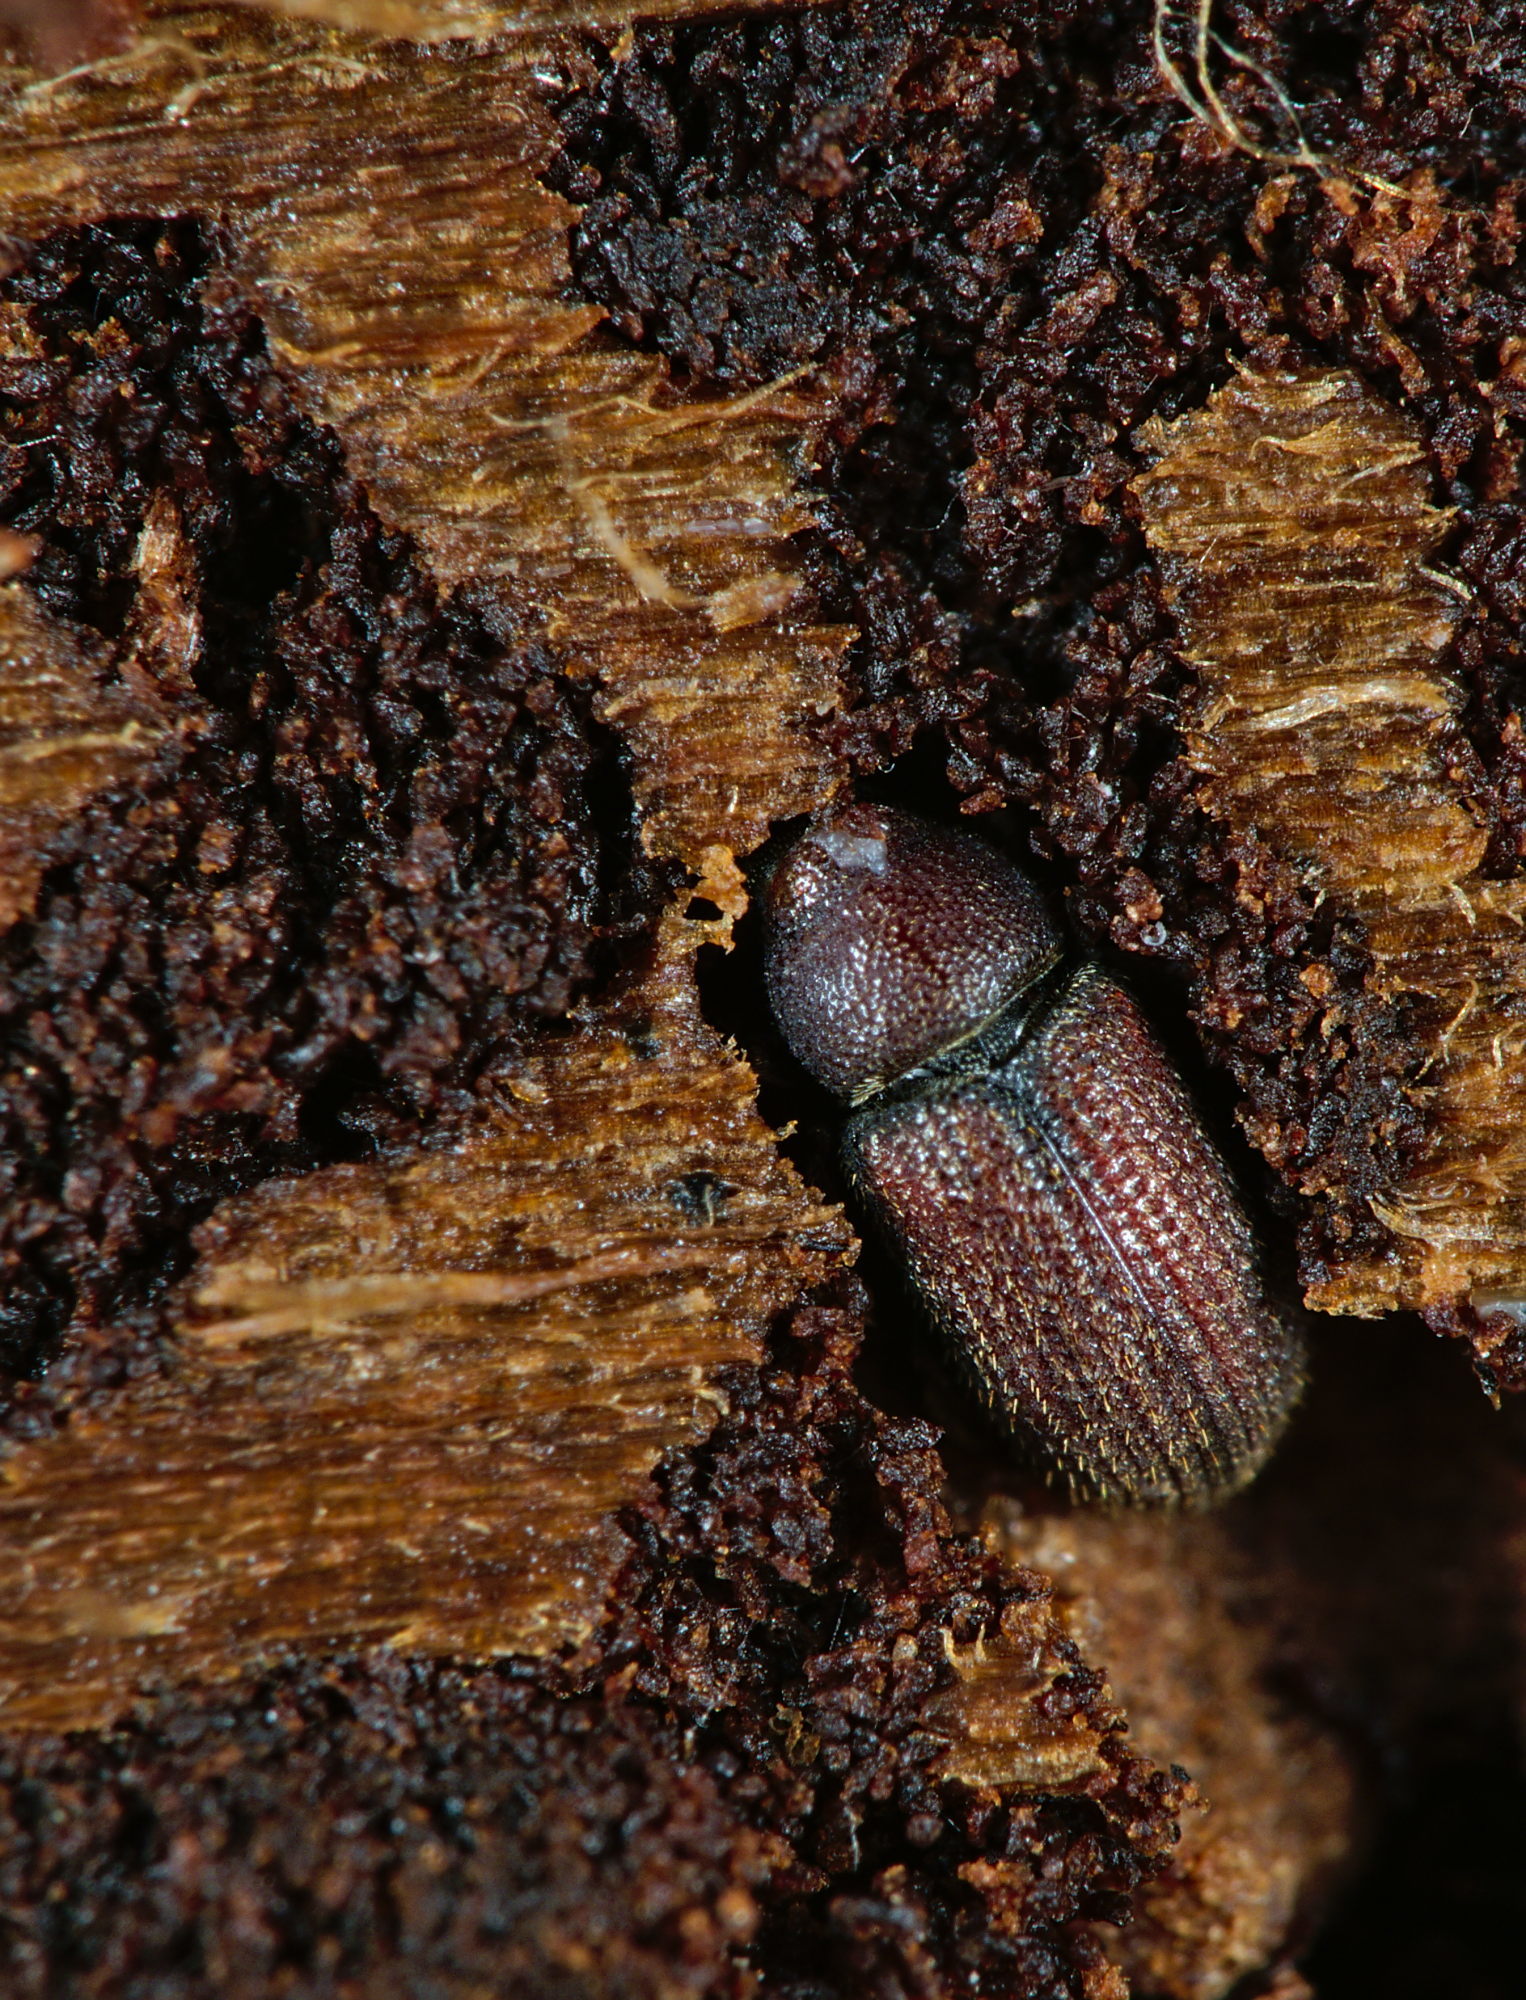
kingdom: Animalia
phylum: Arthropoda
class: Insecta
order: Coleoptera
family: Curculionidae
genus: Hylurgops
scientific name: Hylurgops palliatus
